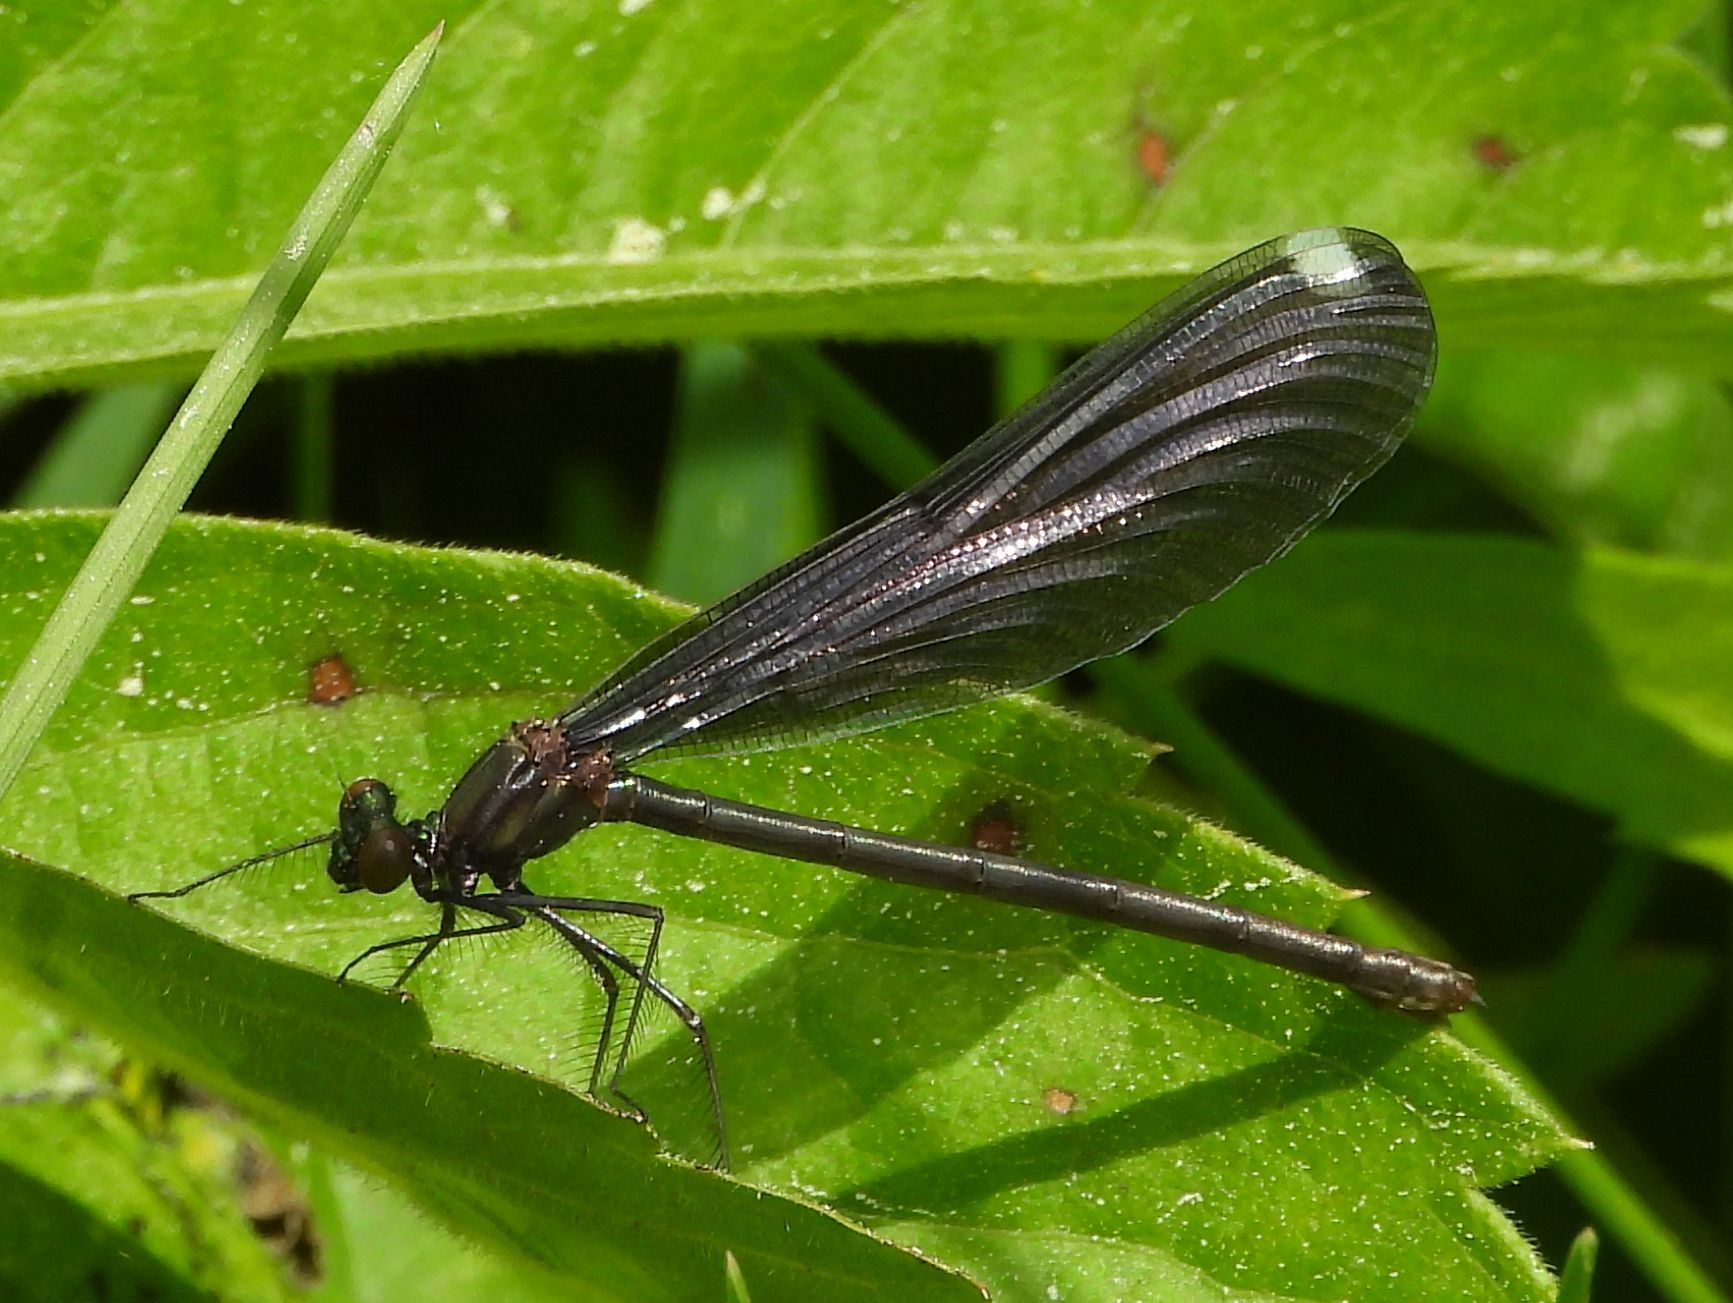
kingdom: Animalia
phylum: Arthropoda
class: Insecta
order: Odonata
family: Calopterygidae
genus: Calopteryx
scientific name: Calopteryx maculata
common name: Ebony jewelwing
